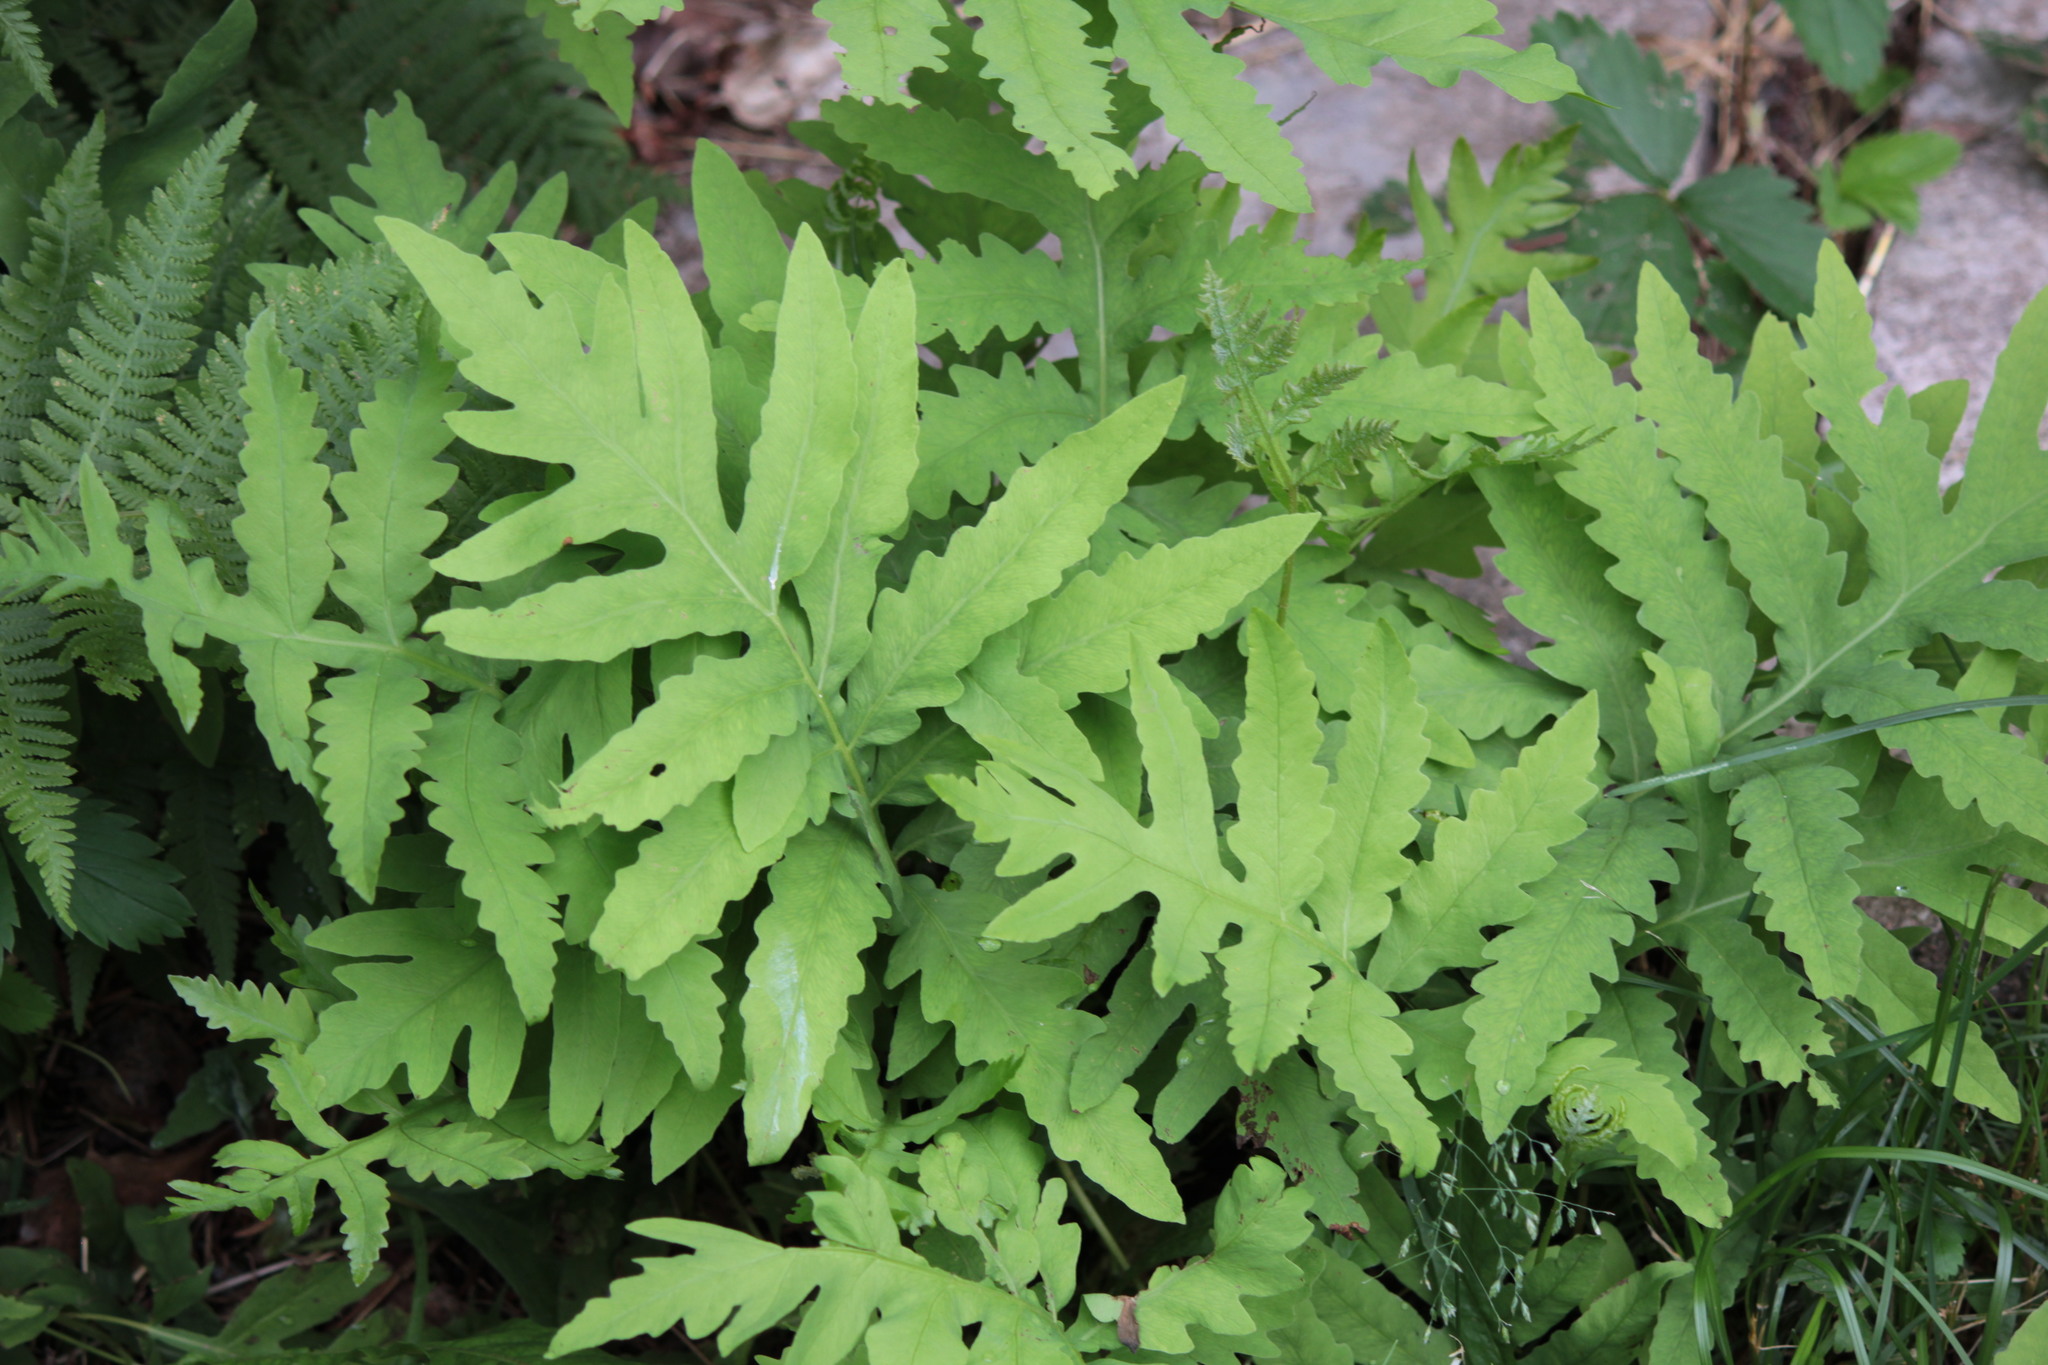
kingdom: Plantae
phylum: Tracheophyta
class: Polypodiopsida
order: Polypodiales
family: Onocleaceae
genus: Onoclea
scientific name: Onoclea sensibilis
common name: Sensitive fern
